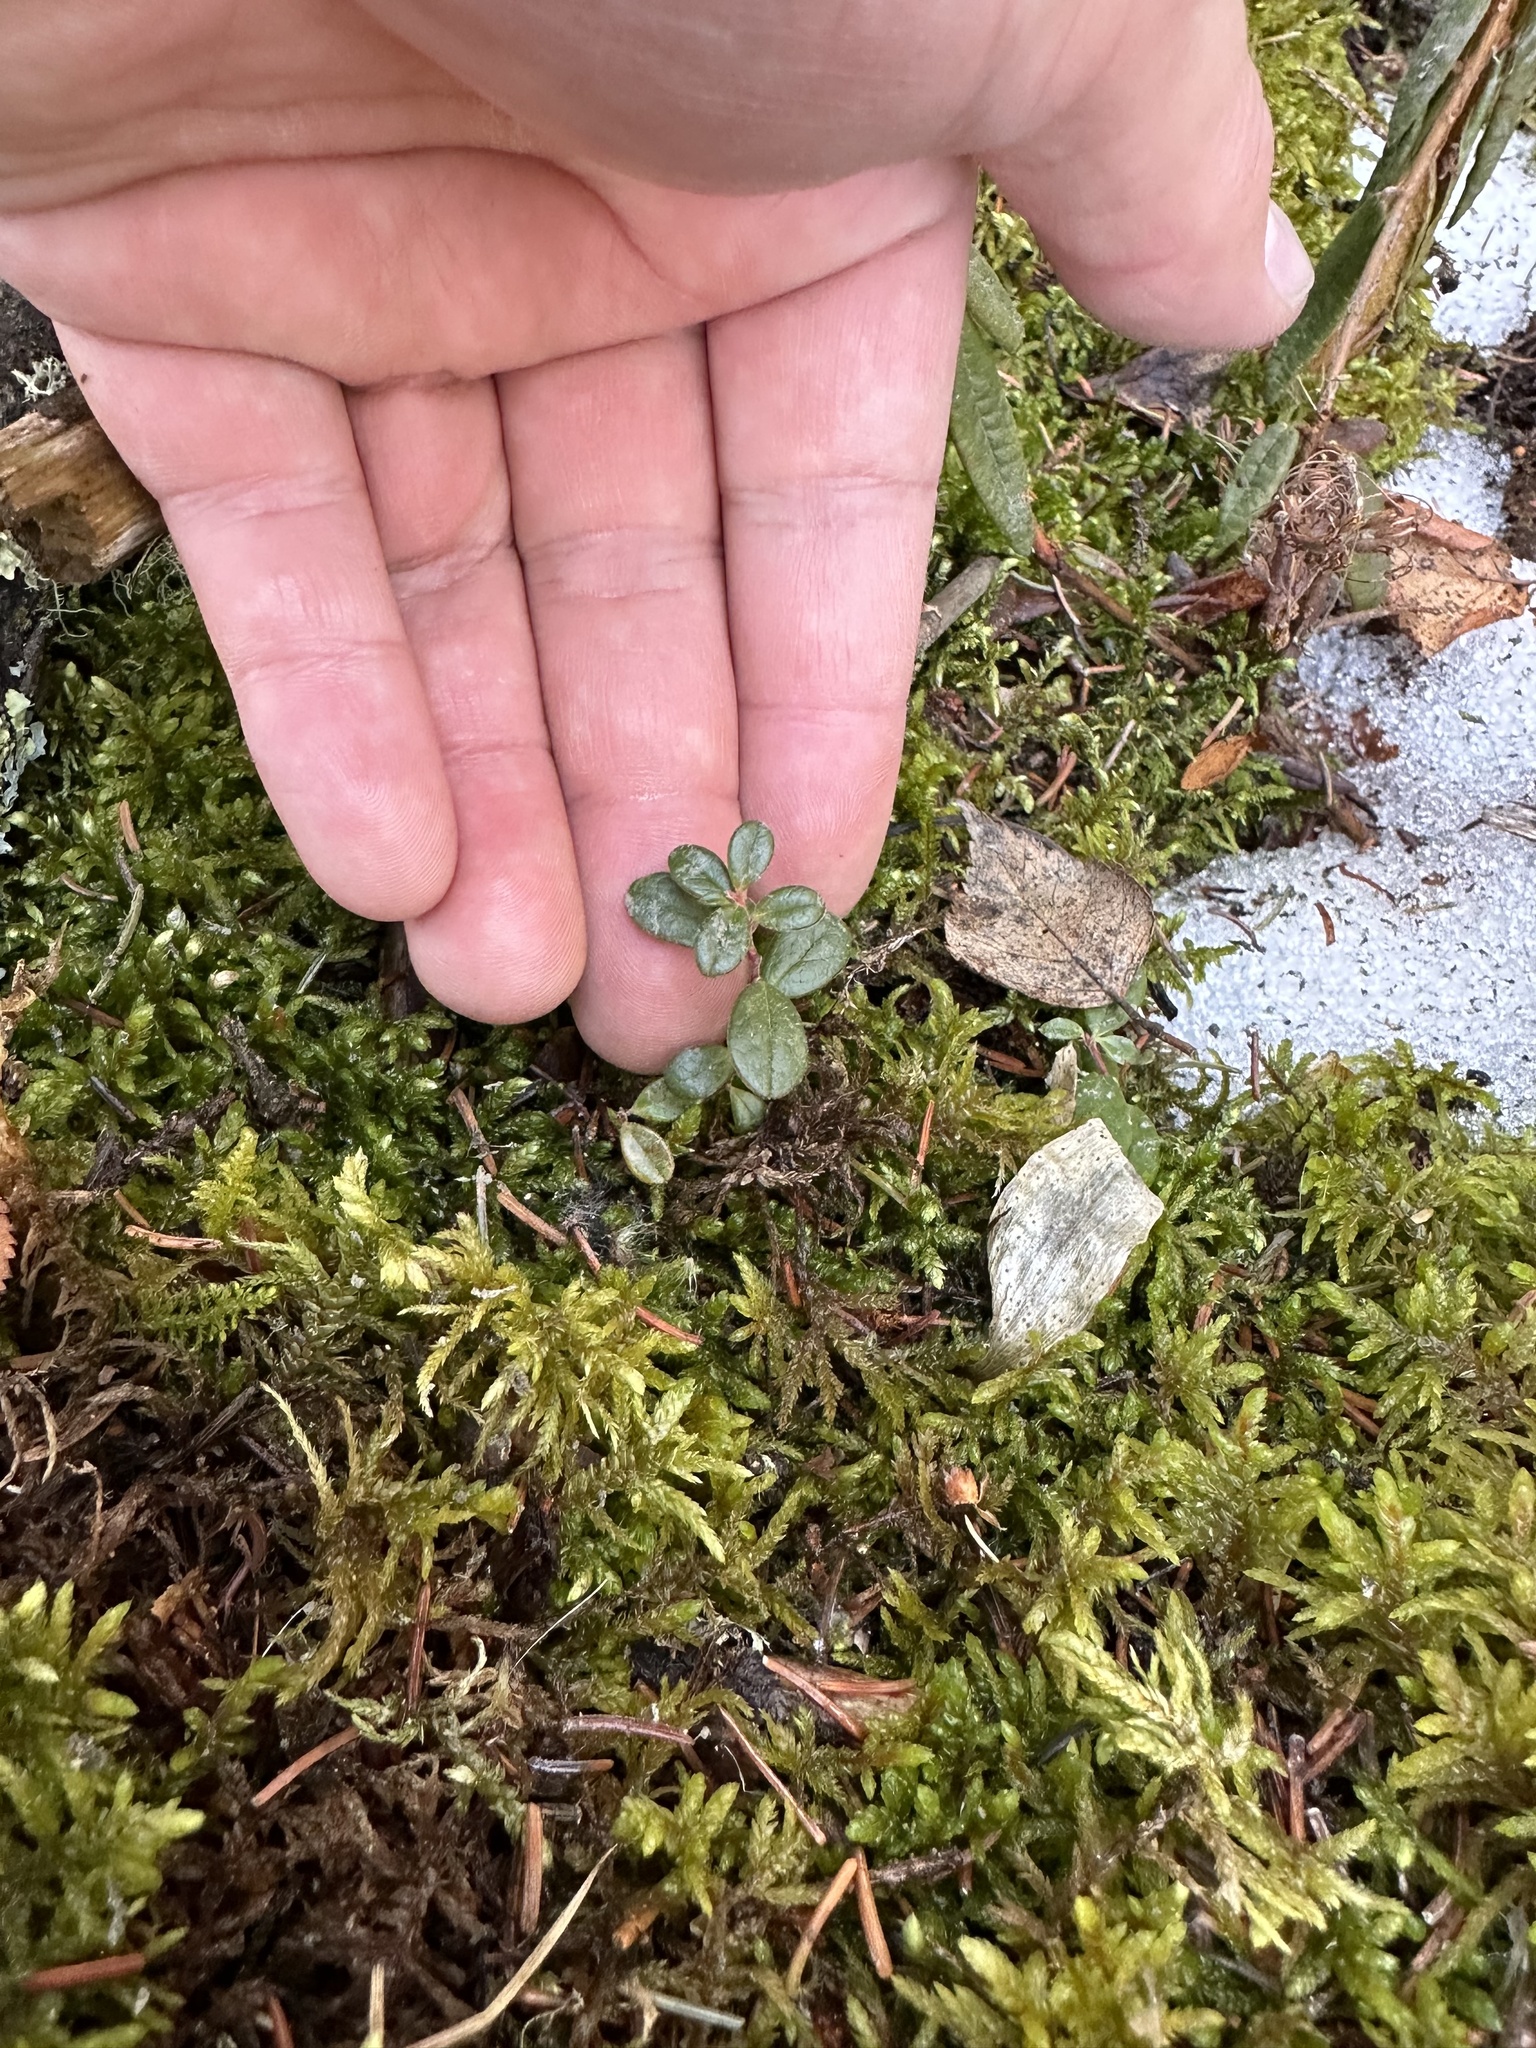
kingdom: Plantae
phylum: Tracheophyta
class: Magnoliopsida
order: Ericales
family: Ericaceae
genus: Vaccinium
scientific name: Vaccinium vitis-idaea
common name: Cowberry
